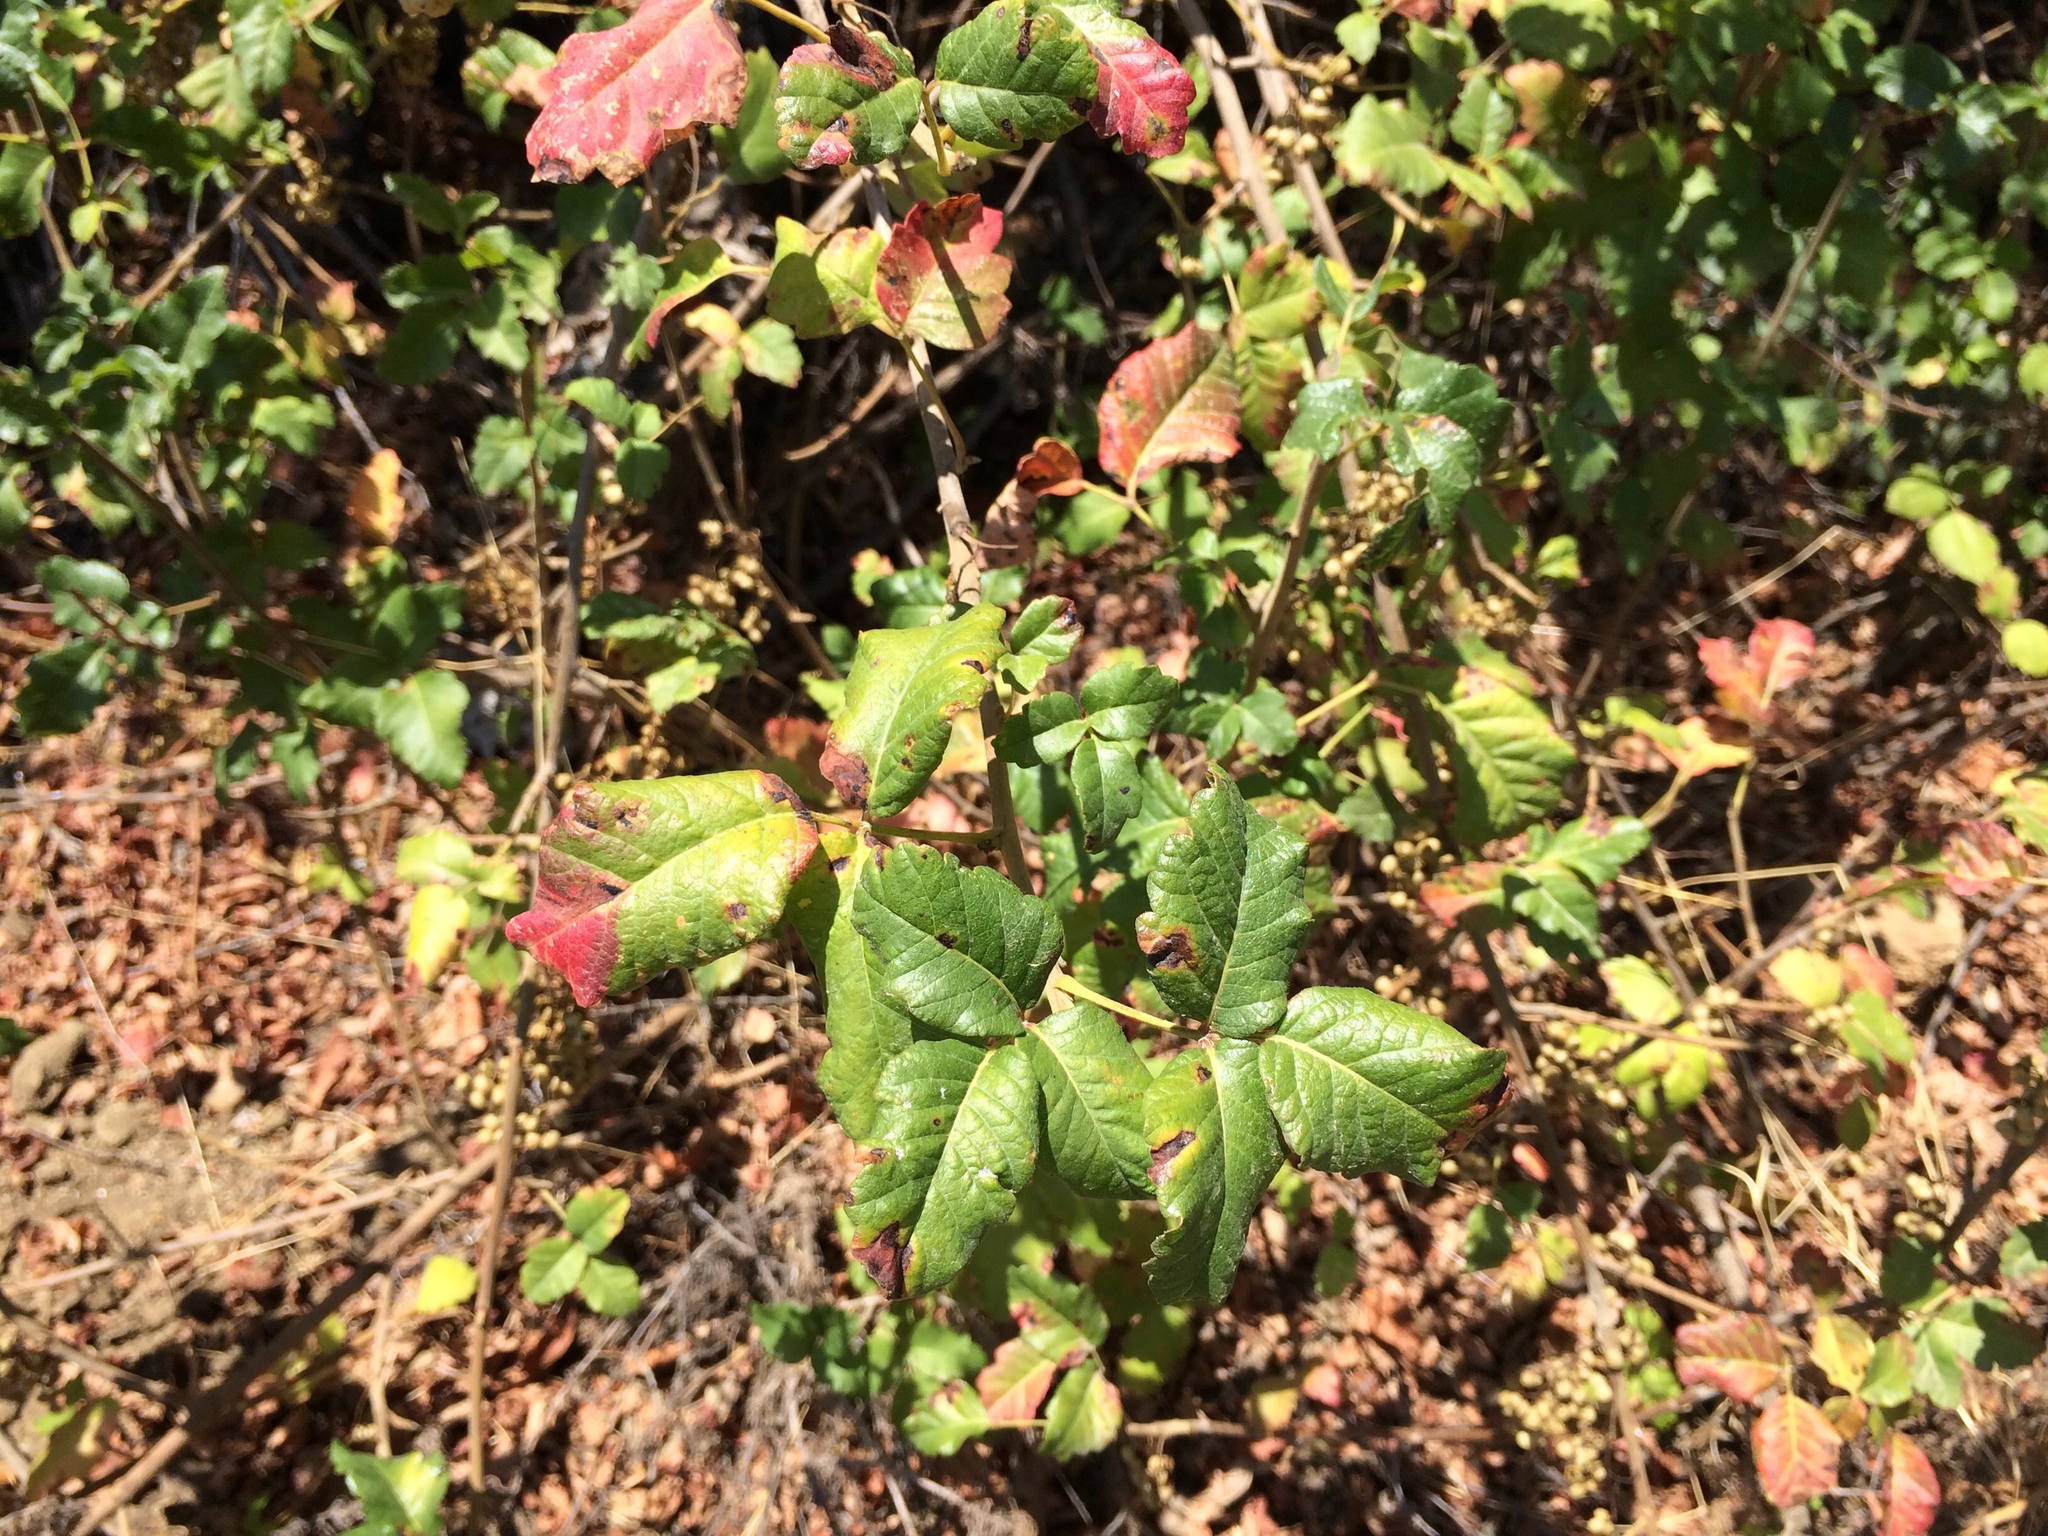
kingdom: Plantae
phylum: Tracheophyta
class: Magnoliopsida
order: Sapindales
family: Anacardiaceae
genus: Toxicodendron
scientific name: Toxicodendron diversilobum
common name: Pacific poison-oak
